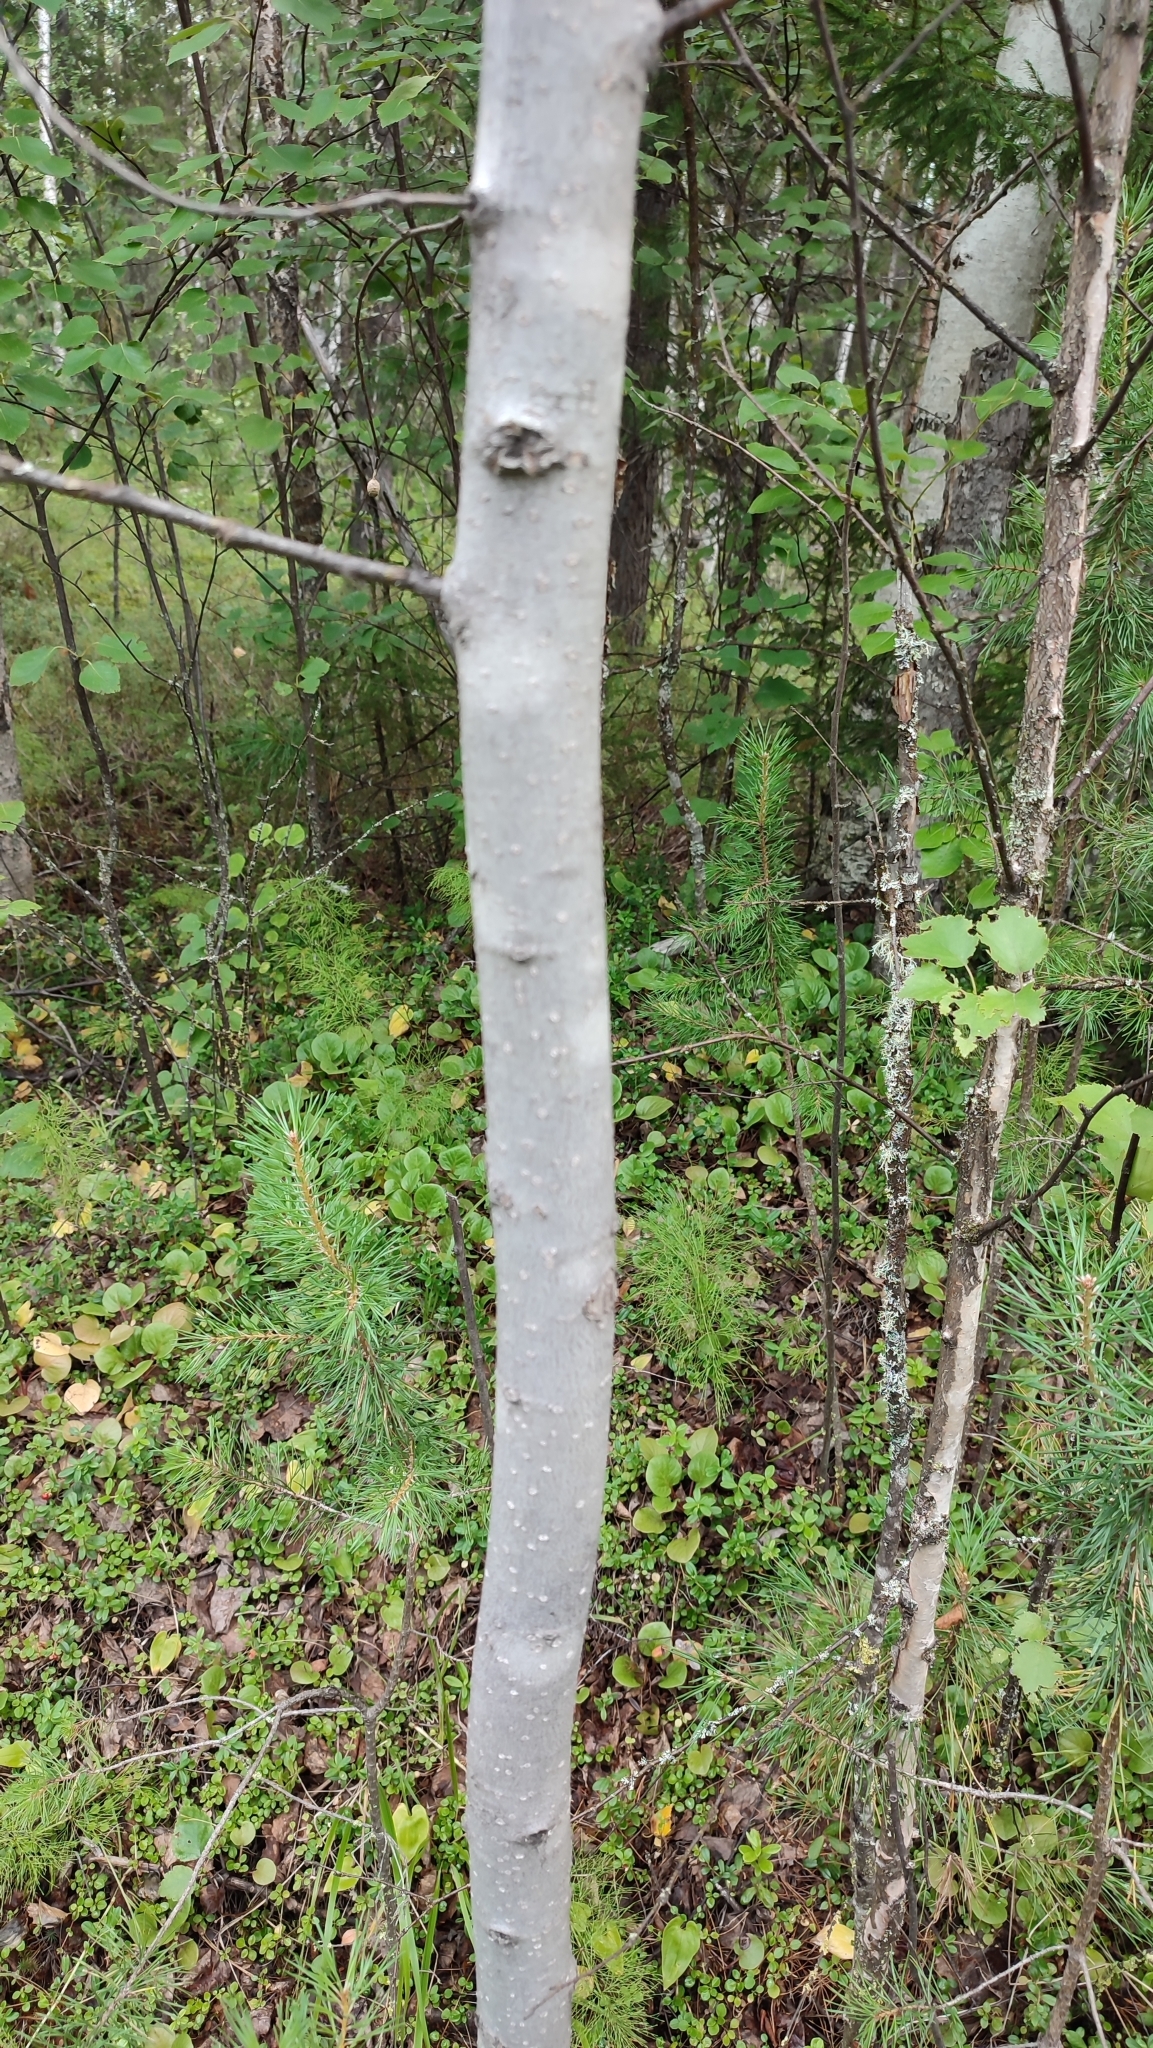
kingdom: Plantae
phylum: Tracheophyta
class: Magnoliopsida
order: Malpighiales
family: Salicaceae
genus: Populus
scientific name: Populus tremula
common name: European aspen
